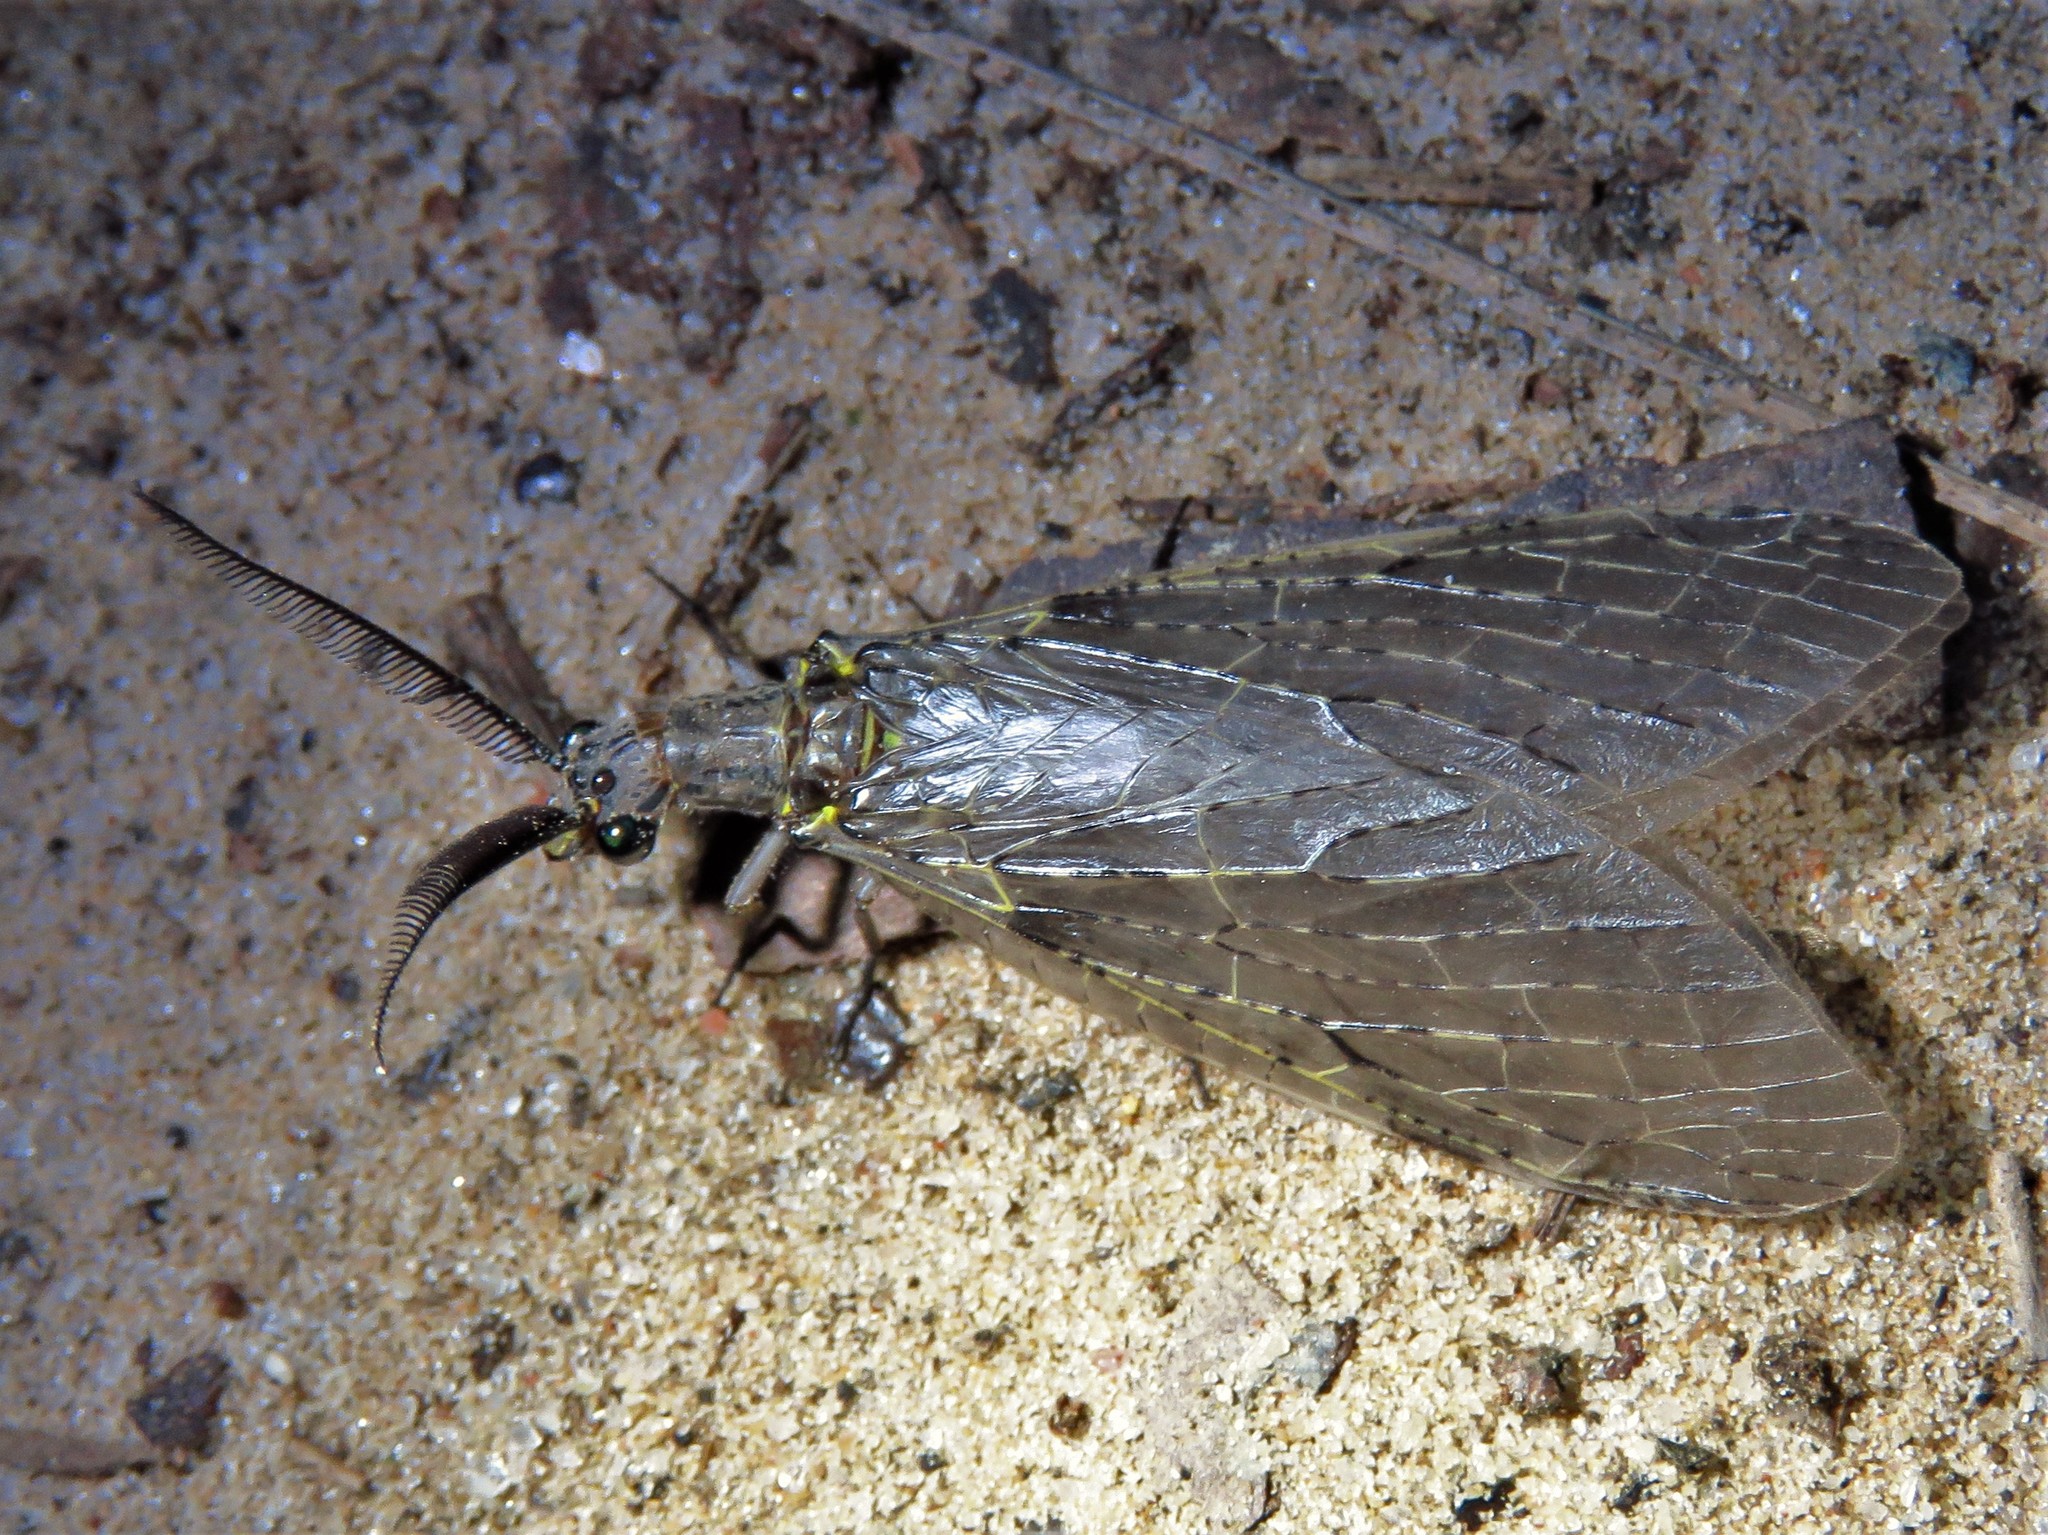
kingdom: Animalia
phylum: Arthropoda
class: Insecta
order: Megaloptera
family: Corydalidae
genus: Chauliodes
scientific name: Chauliodes rastricornis
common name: Spring fishfly
